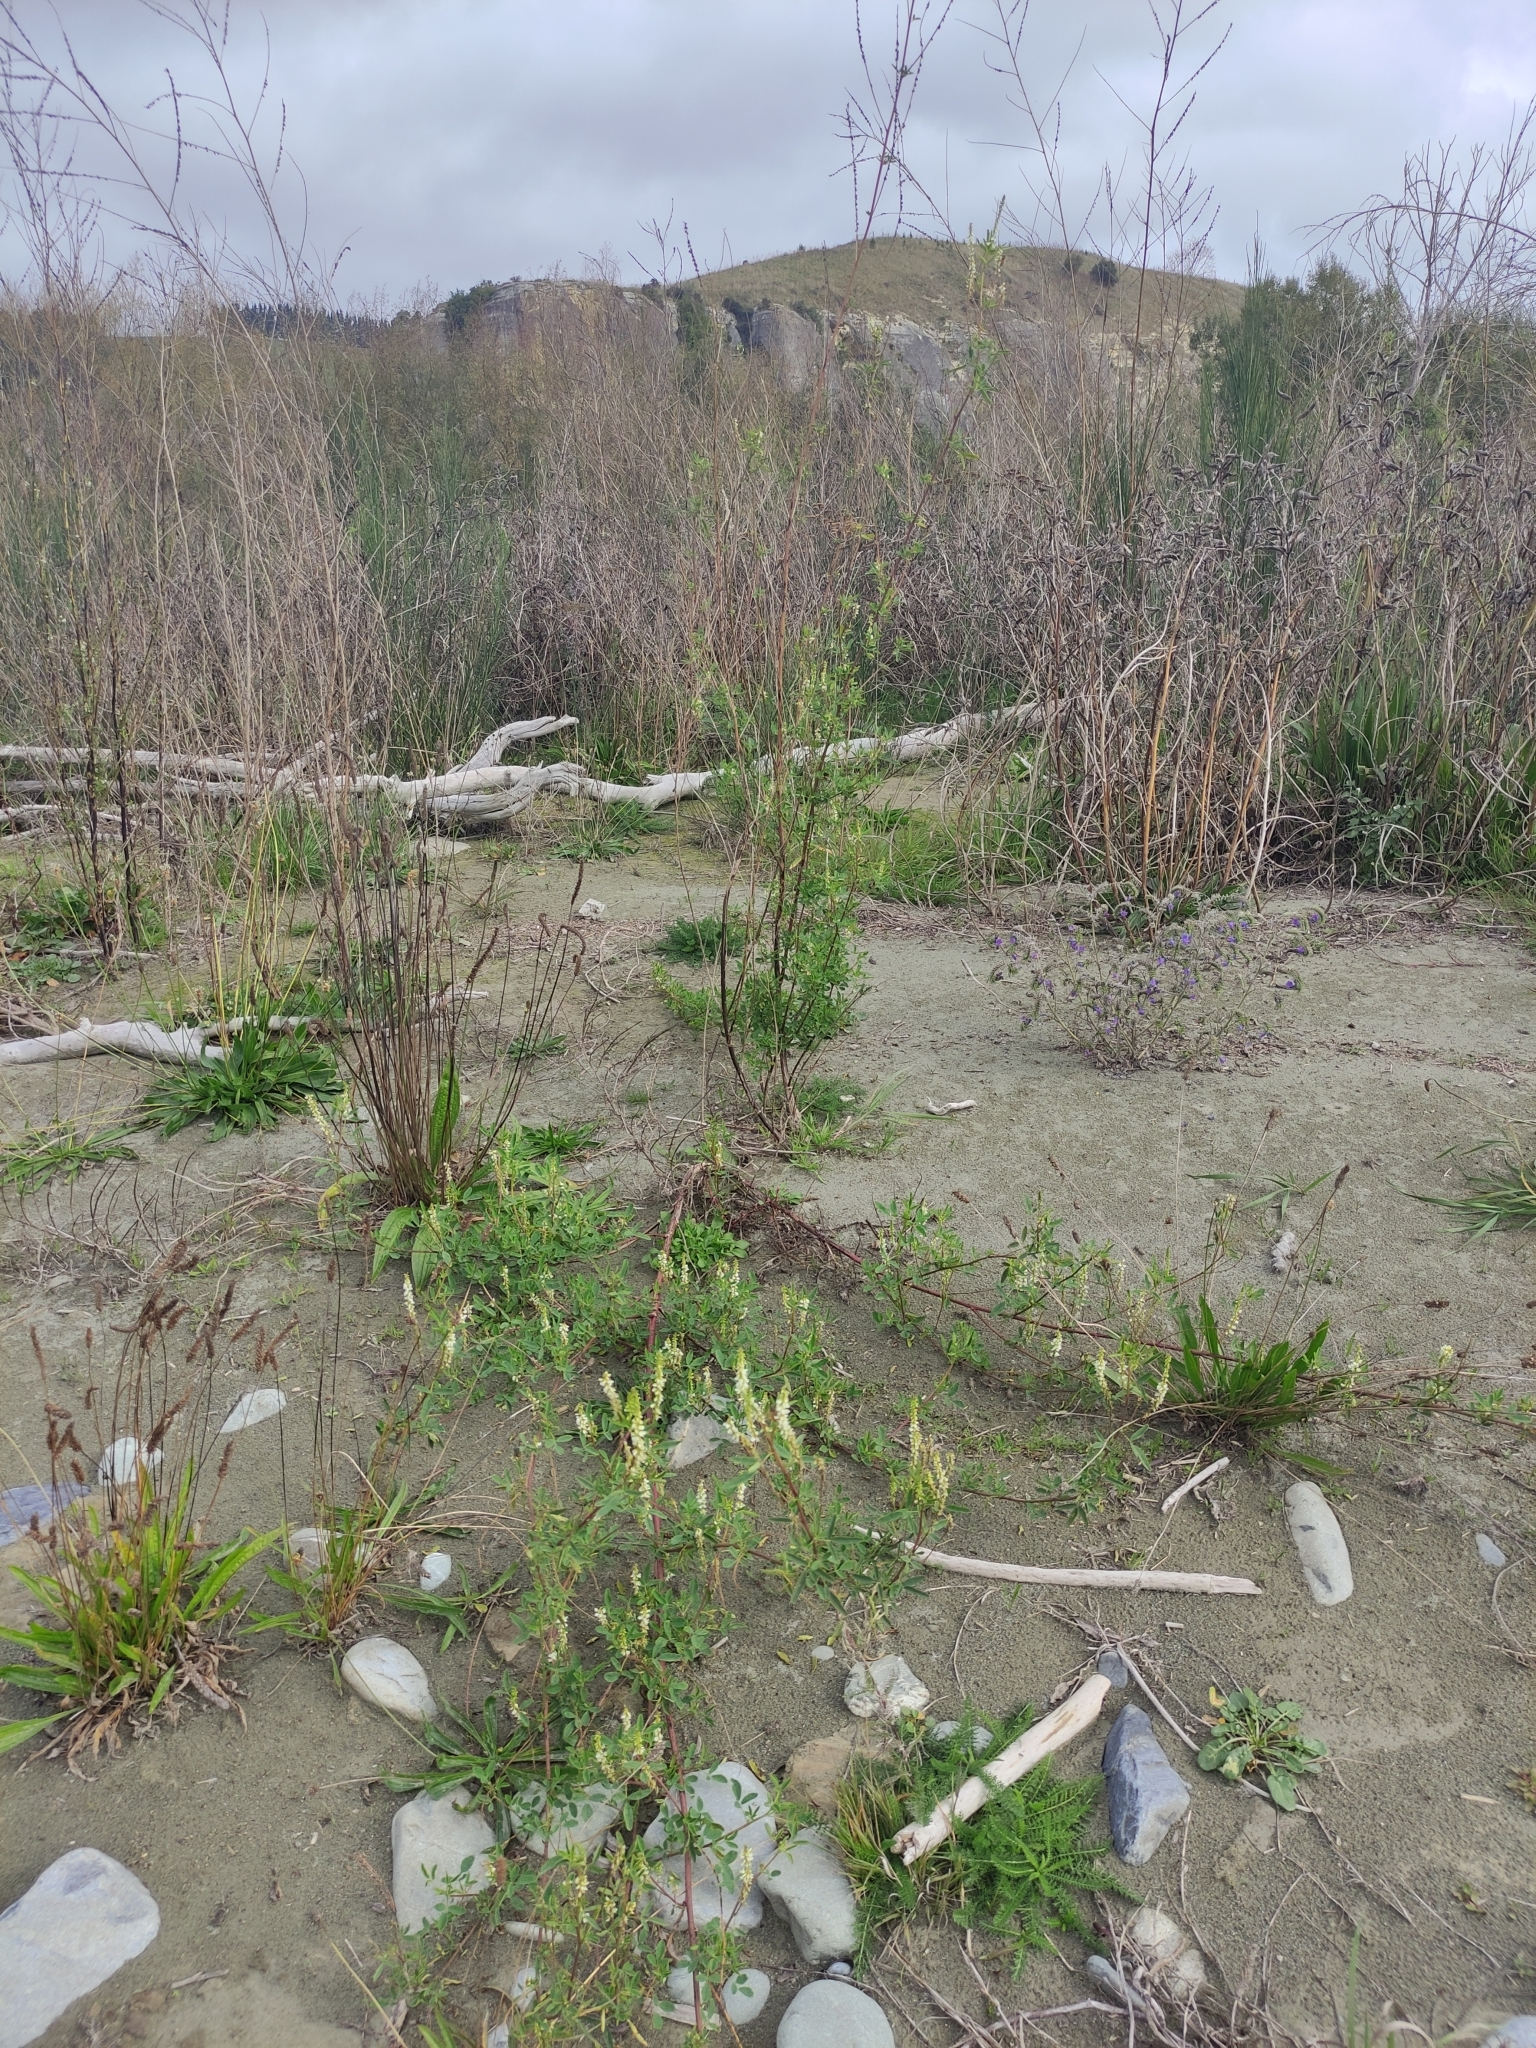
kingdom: Plantae
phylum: Tracheophyta
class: Magnoliopsida
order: Fabales
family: Fabaceae
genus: Melilotus
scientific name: Melilotus albus
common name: White melilot
